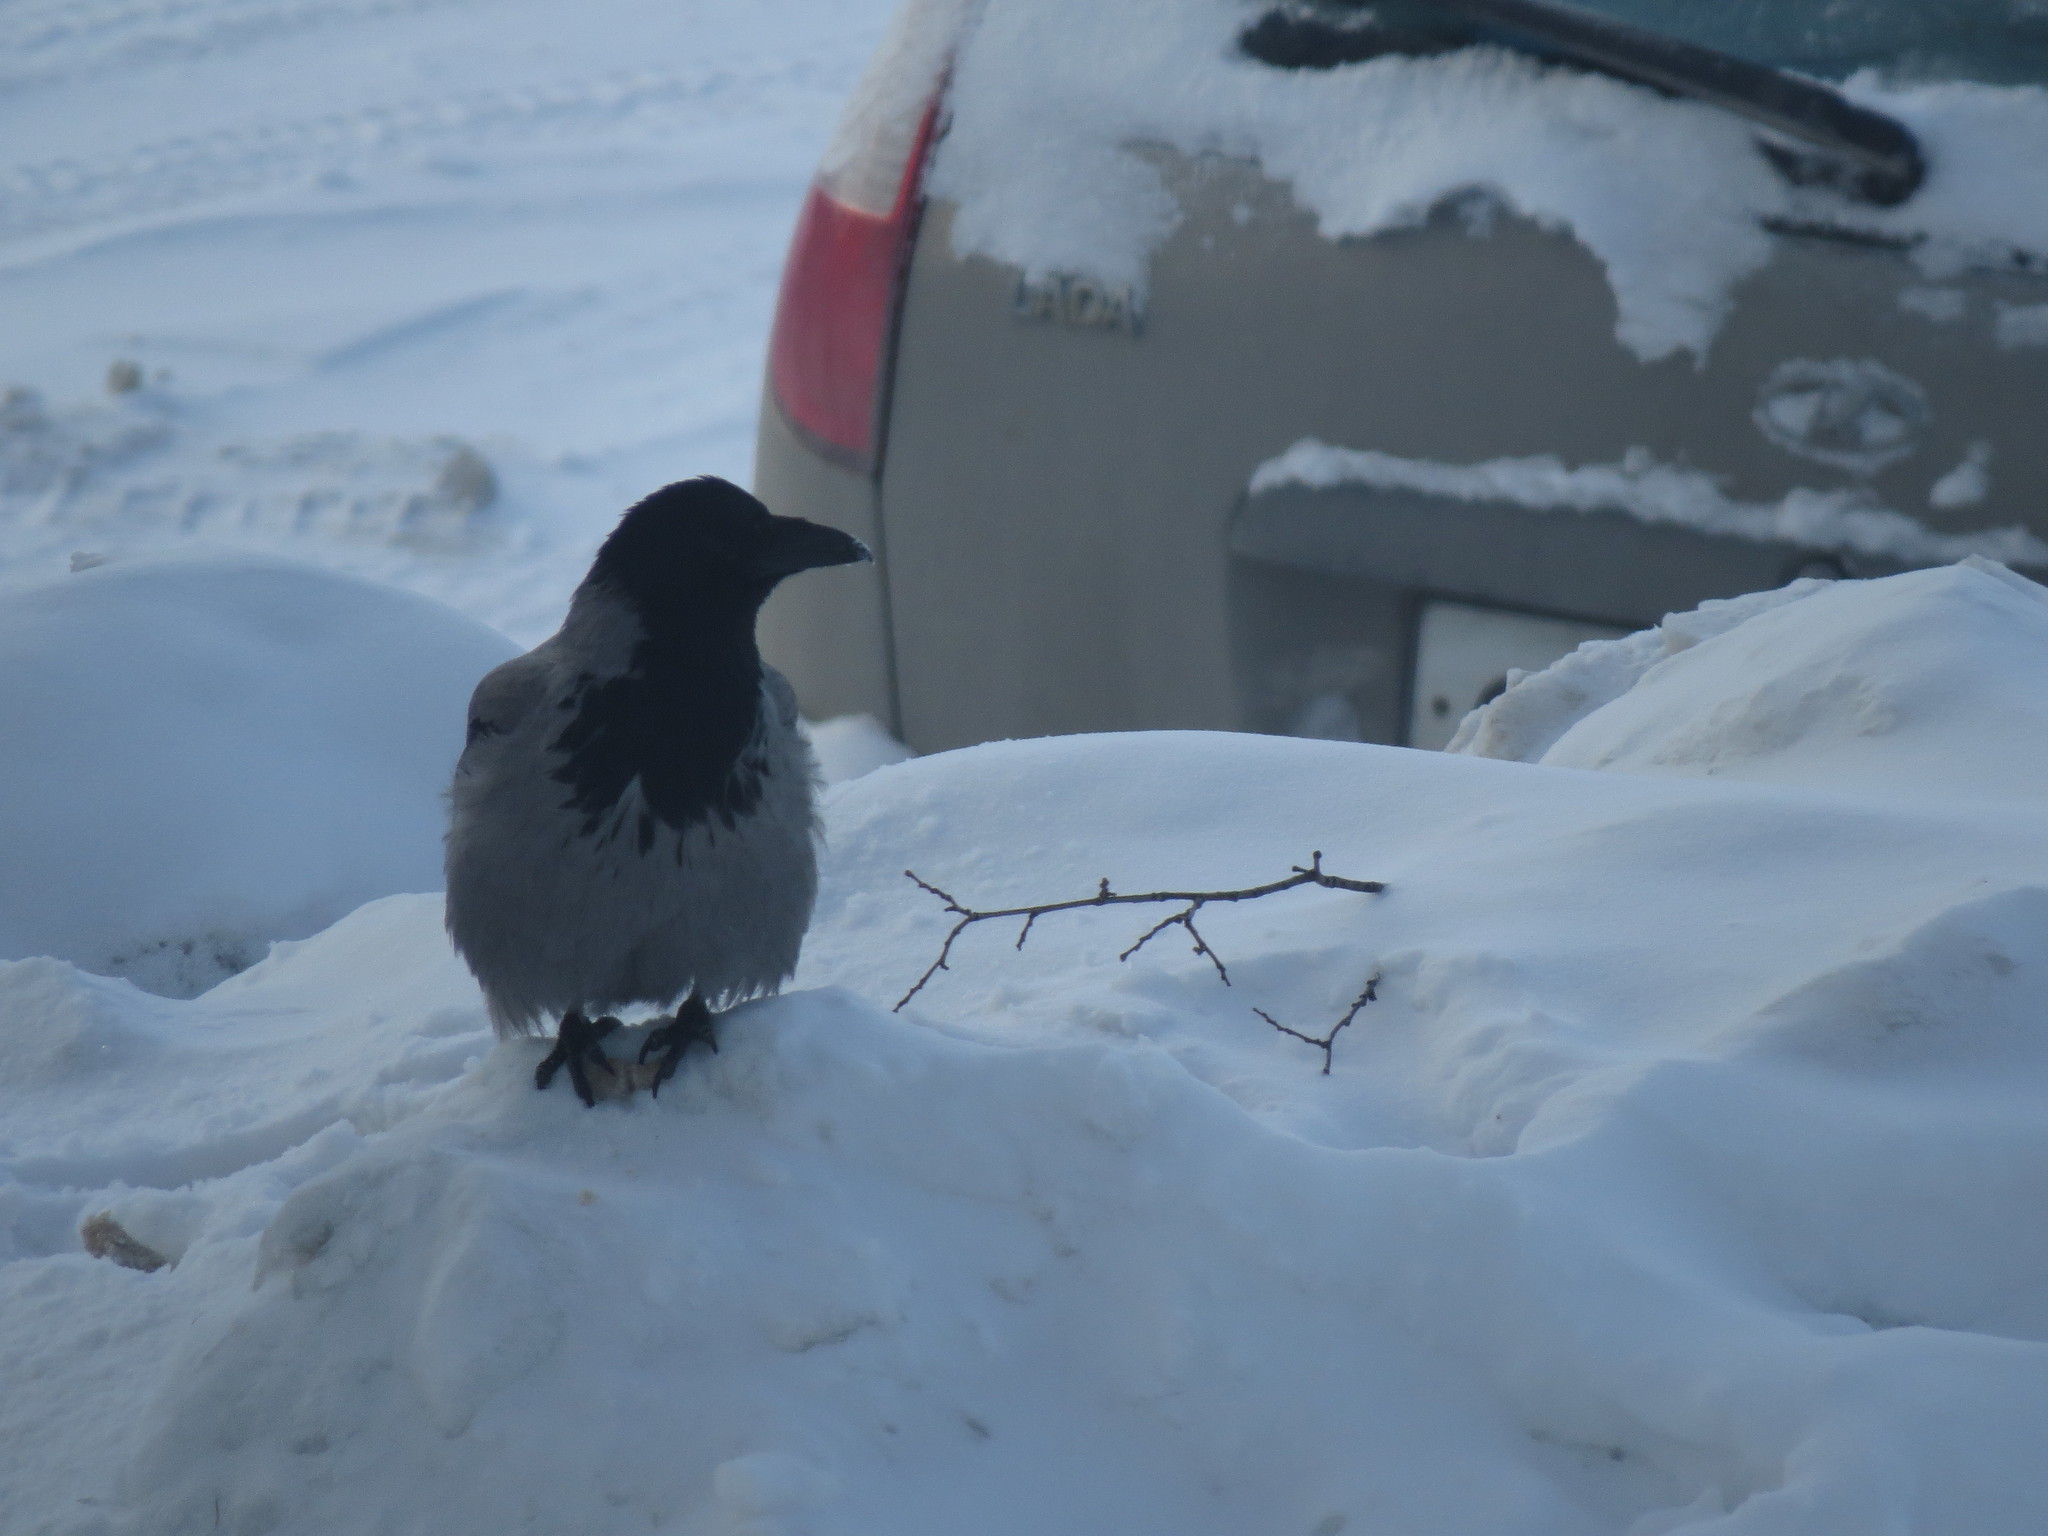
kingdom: Animalia
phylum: Chordata
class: Aves
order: Passeriformes
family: Corvidae
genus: Corvus
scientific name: Corvus cornix
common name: Hooded crow
